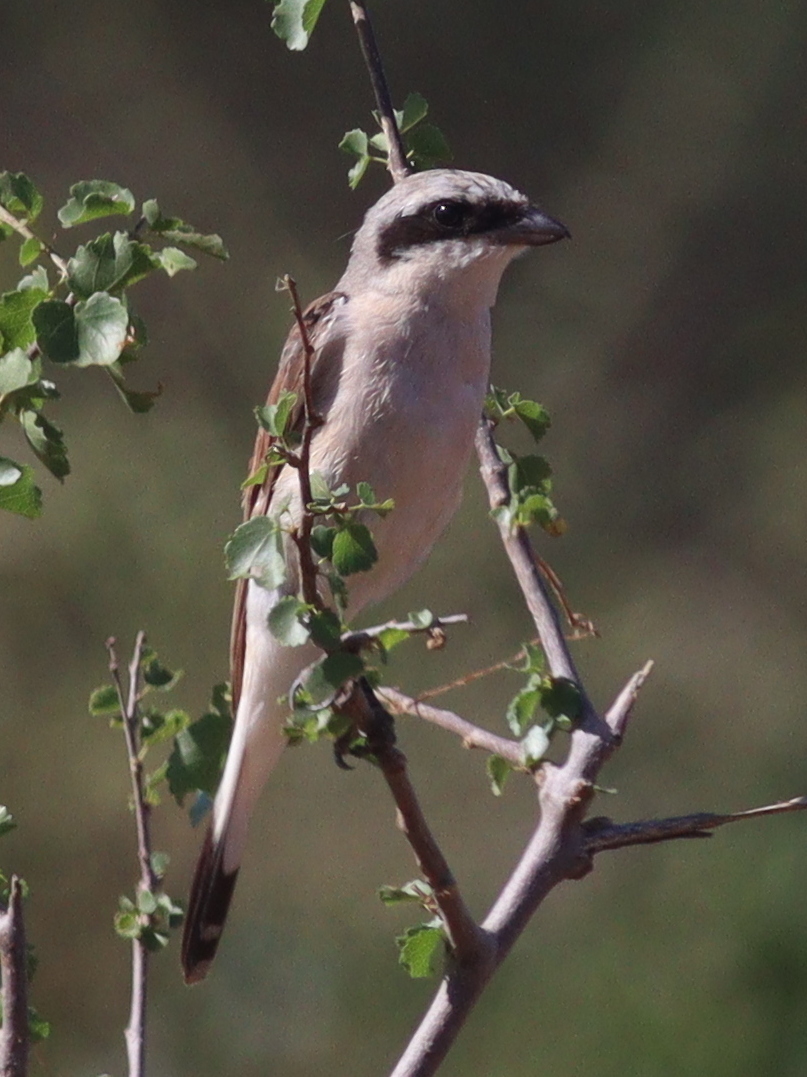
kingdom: Animalia
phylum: Chordata
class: Aves
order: Passeriformes
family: Laniidae
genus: Lanius
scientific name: Lanius collurio
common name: Red-backed shrike
